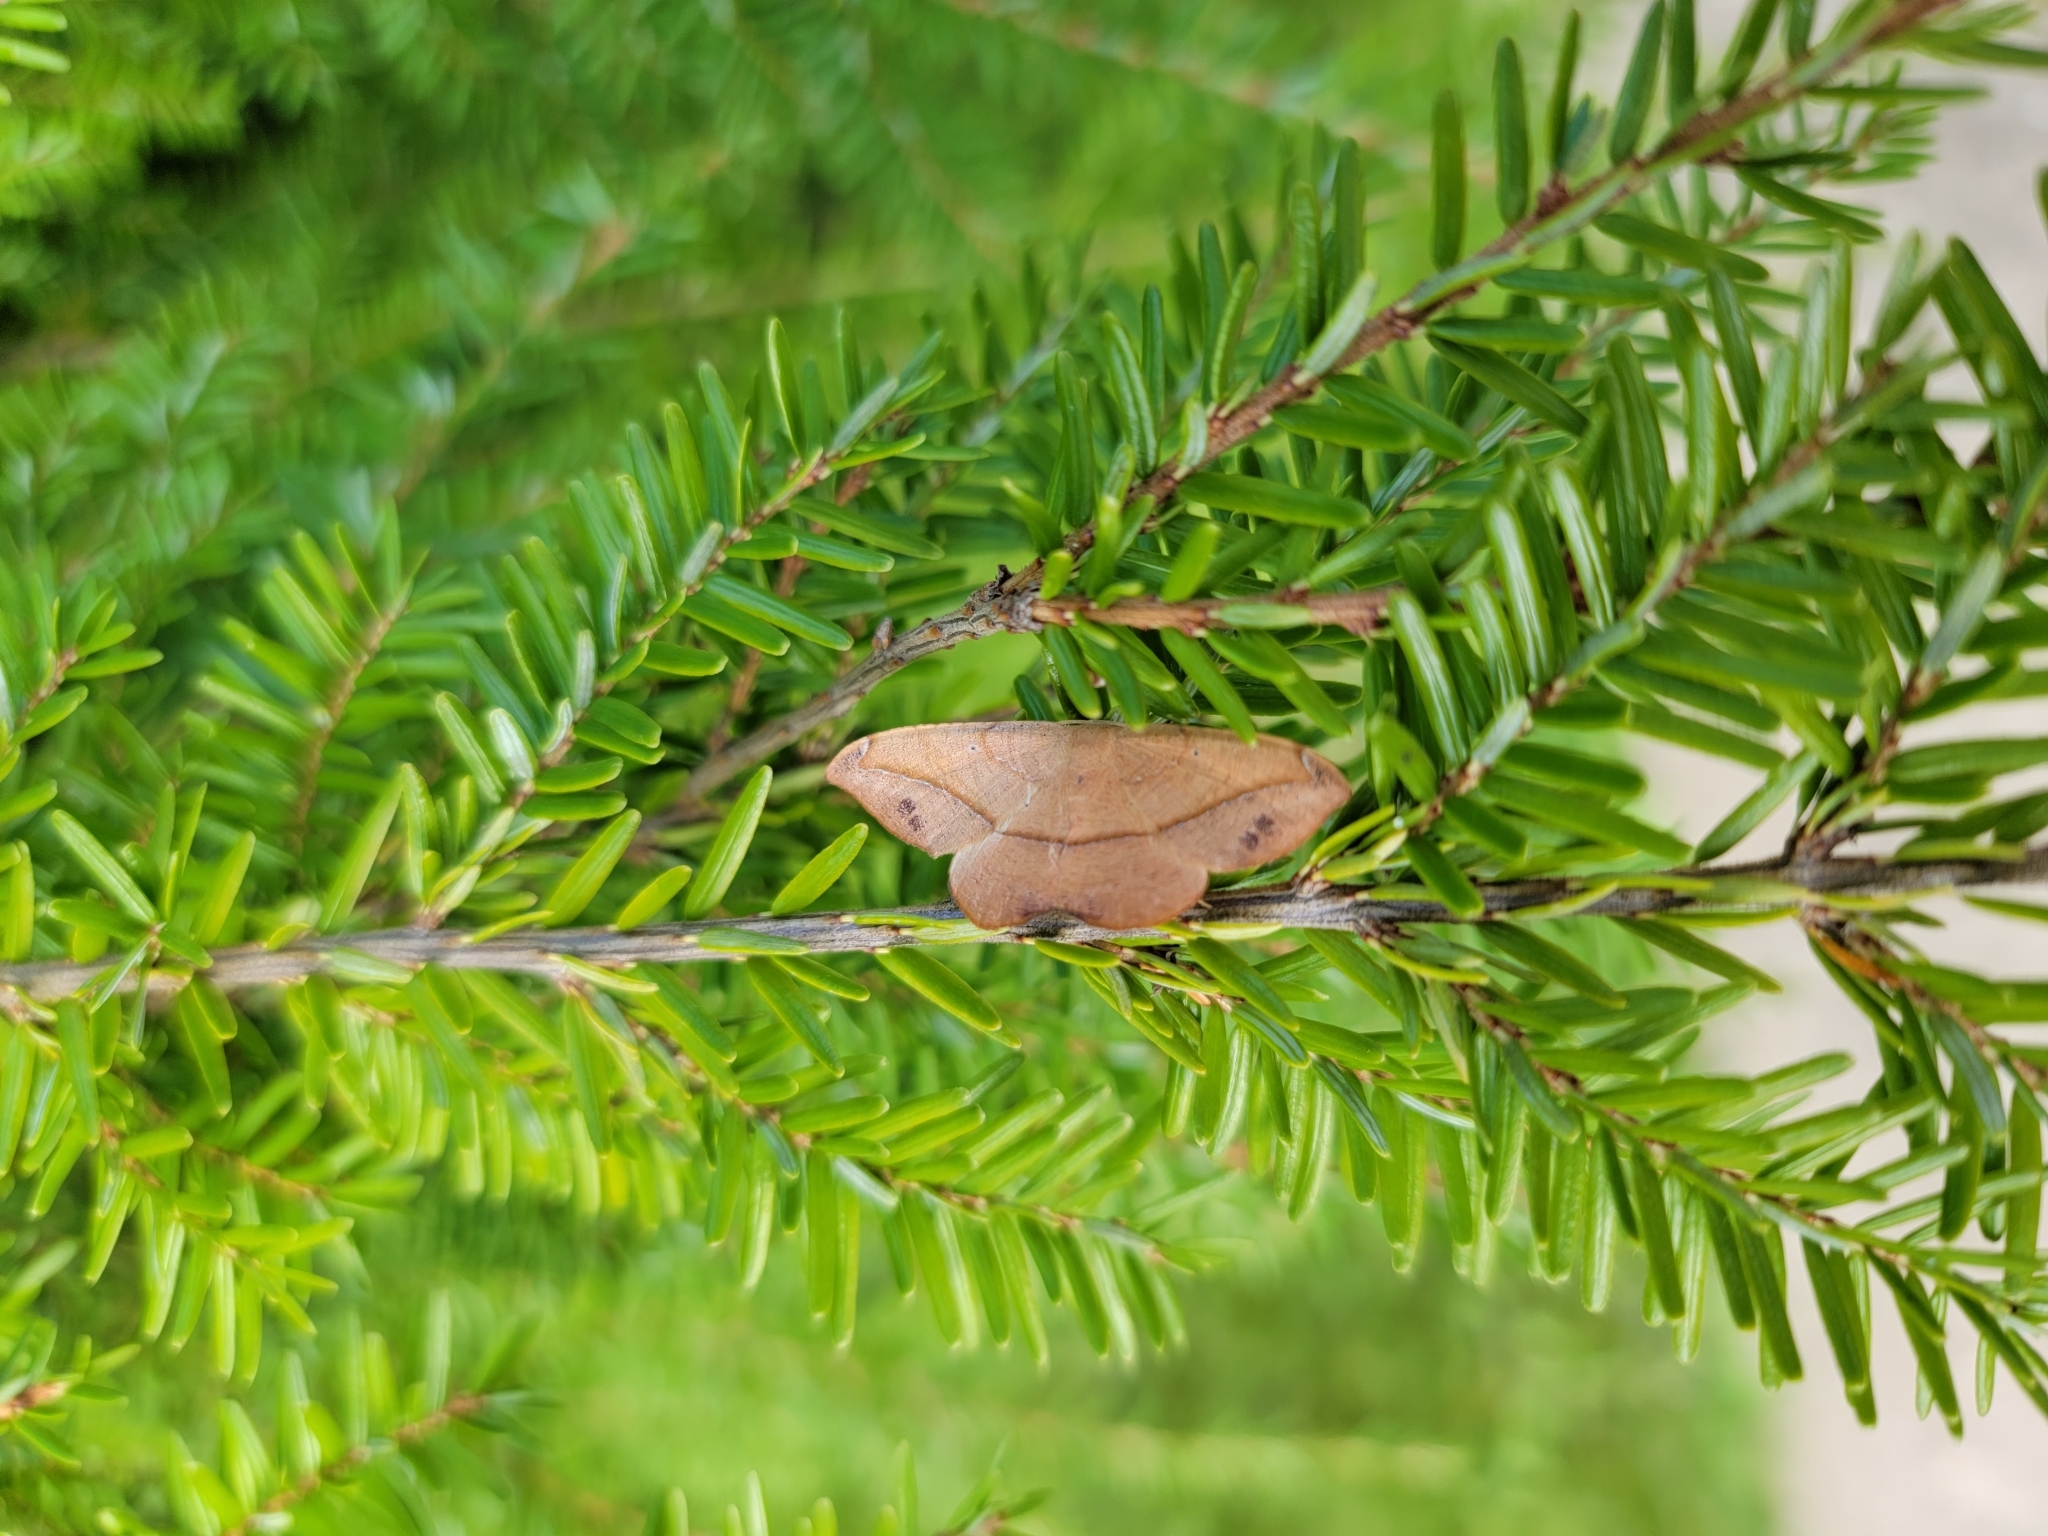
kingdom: Animalia
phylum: Arthropoda
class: Insecta
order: Lepidoptera
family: Geometridae
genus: Patalene
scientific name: Patalene olyzonaria
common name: Juniper geometer moth
